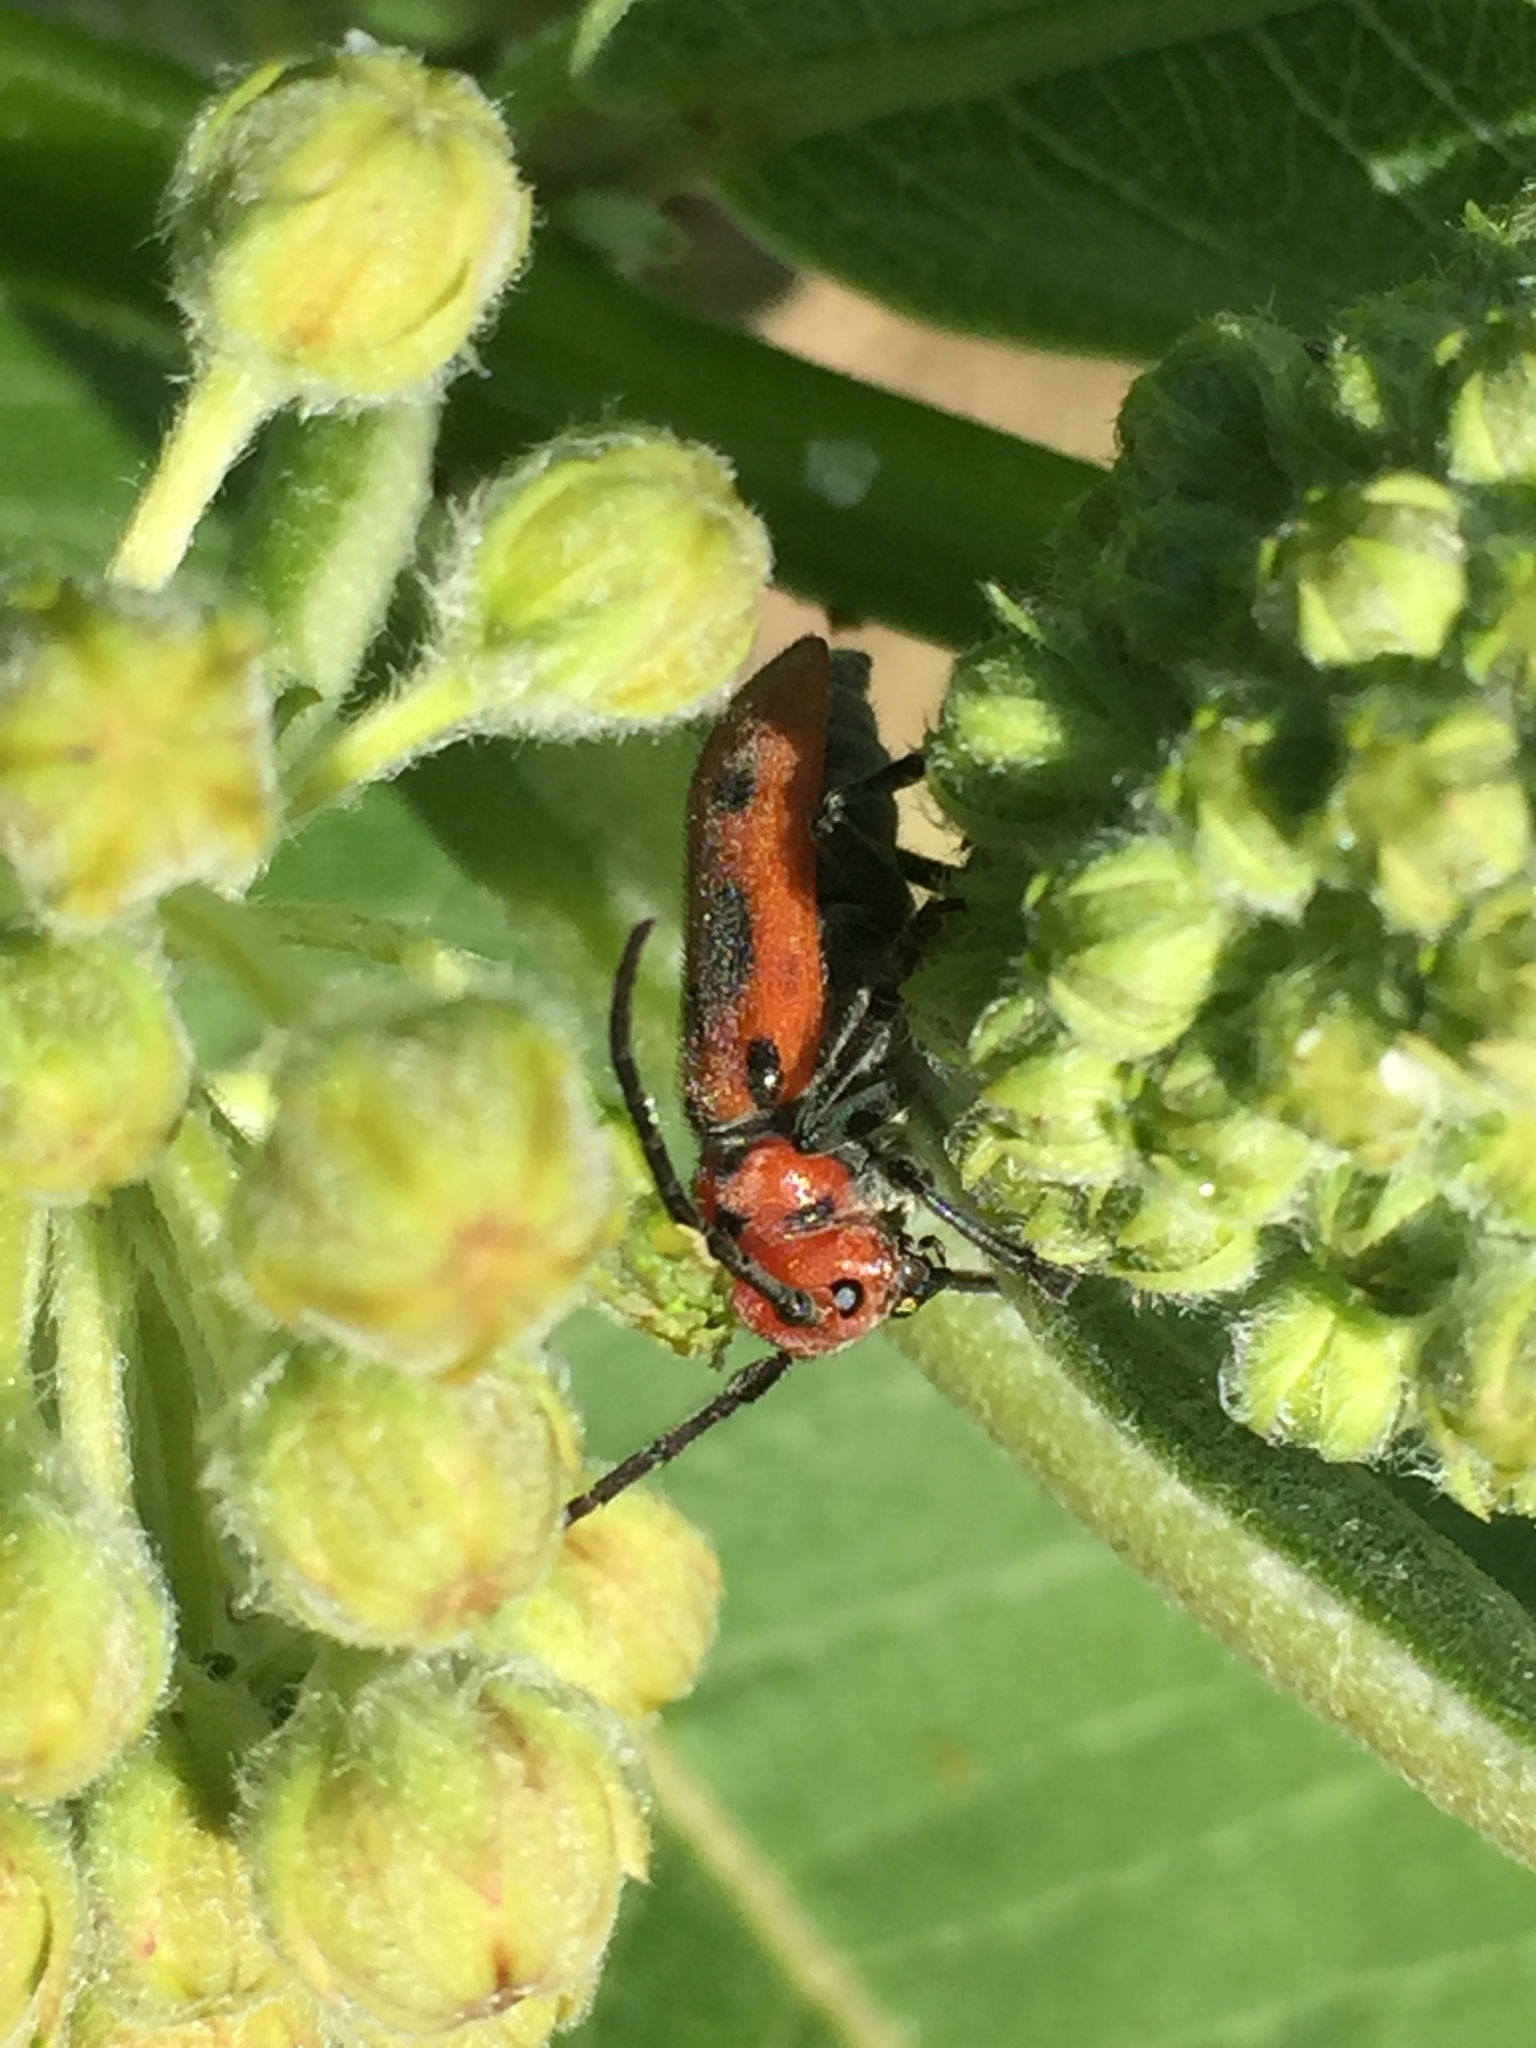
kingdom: Animalia
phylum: Arthropoda
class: Insecta
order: Coleoptera
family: Cerambycidae
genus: Tetraopes
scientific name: Tetraopes tetrophthalmus
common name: Red milkweed beetle
